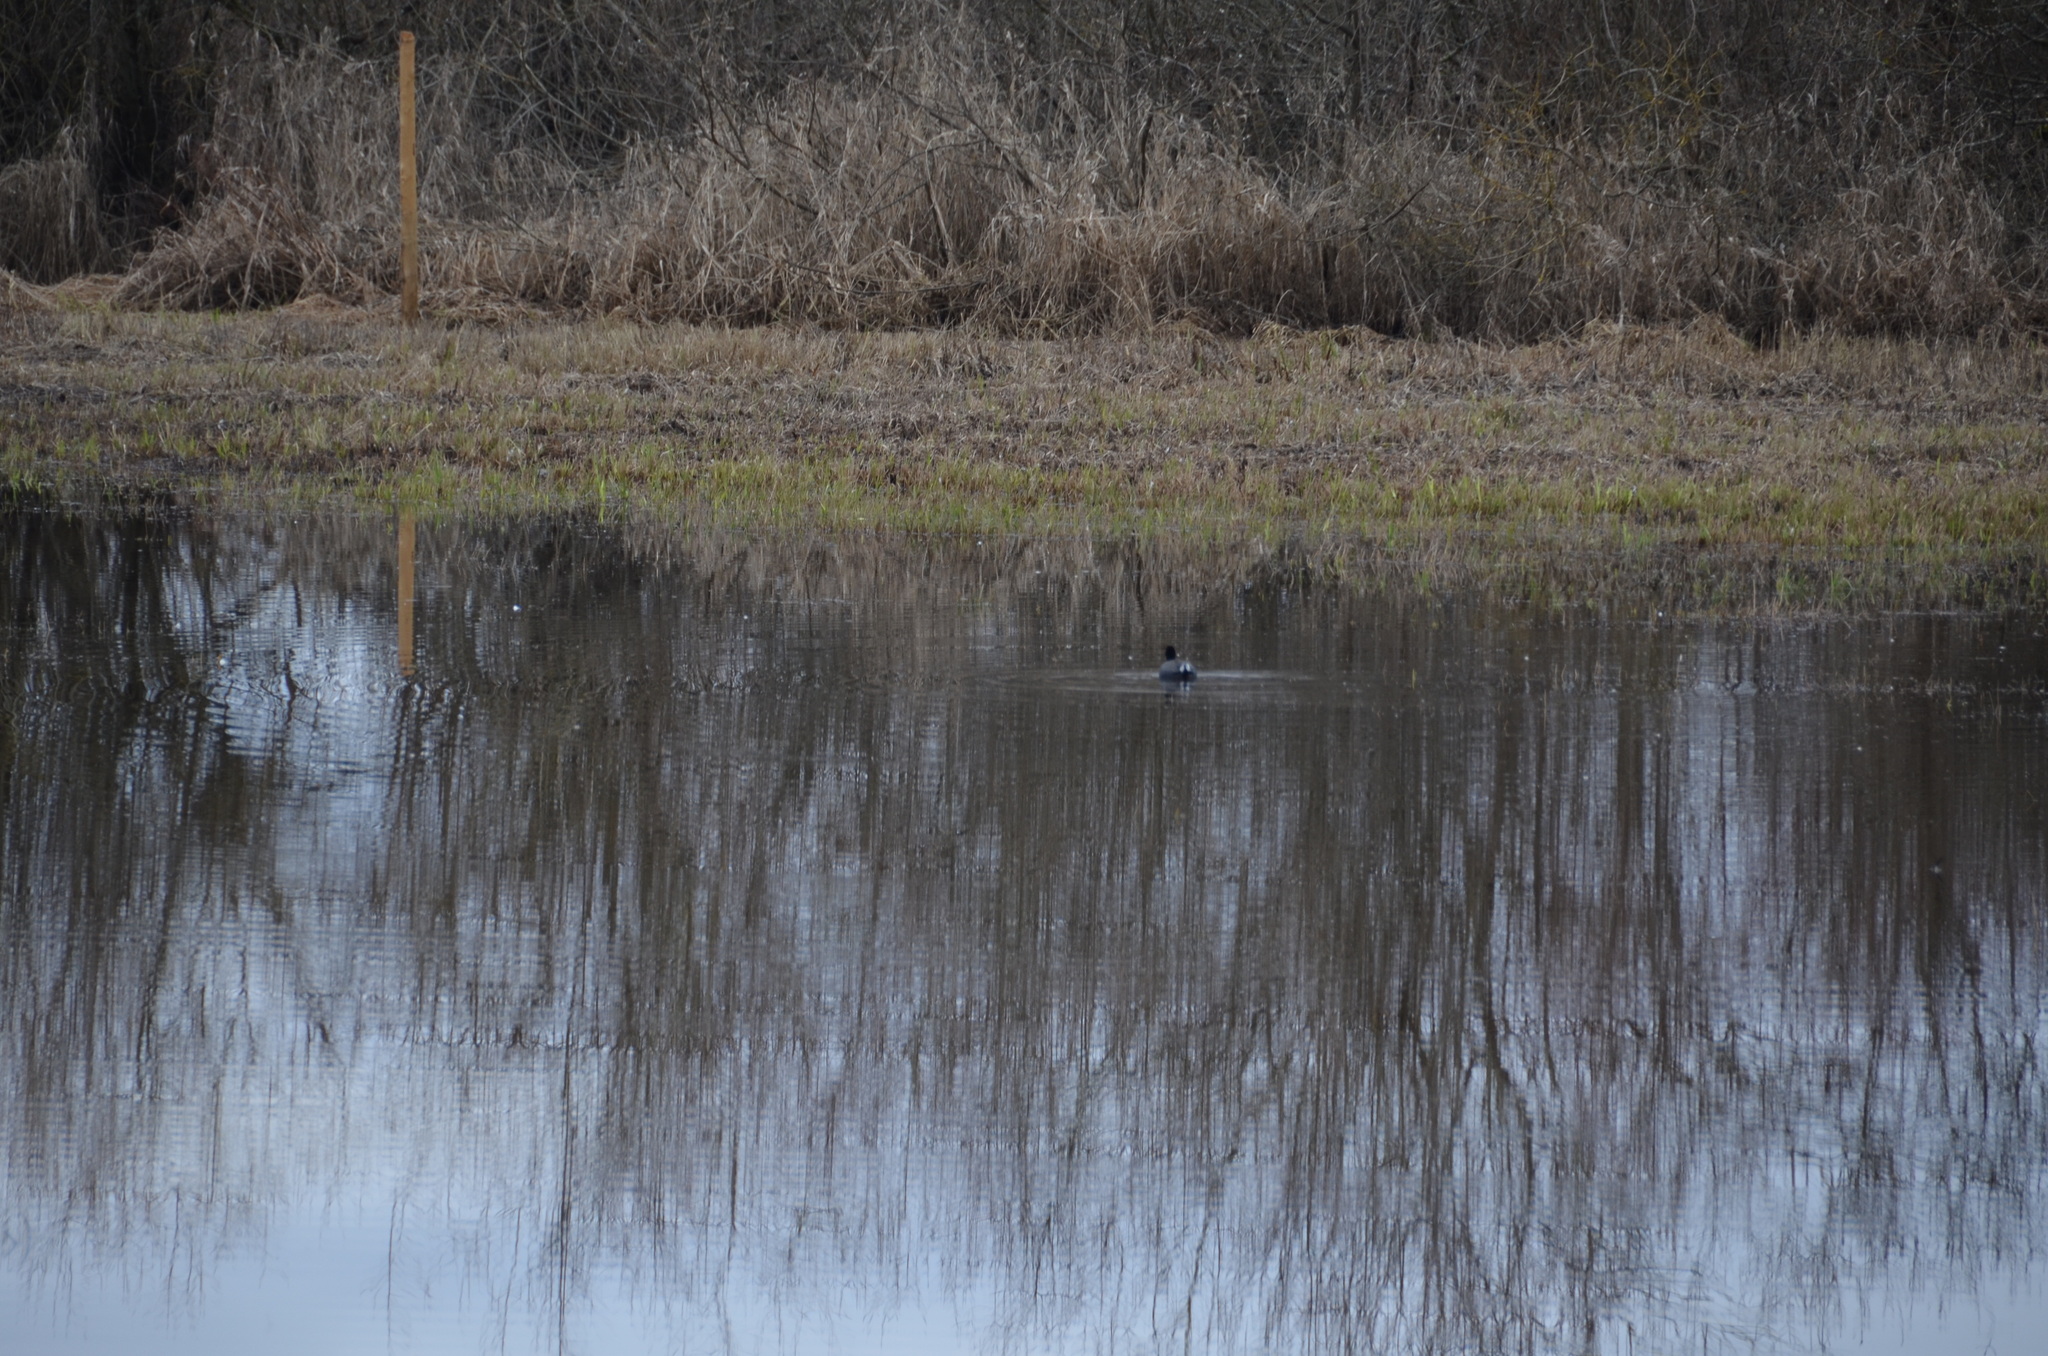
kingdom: Animalia
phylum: Chordata
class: Aves
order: Gruiformes
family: Rallidae
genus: Fulica
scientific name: Fulica americana
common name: American coot
